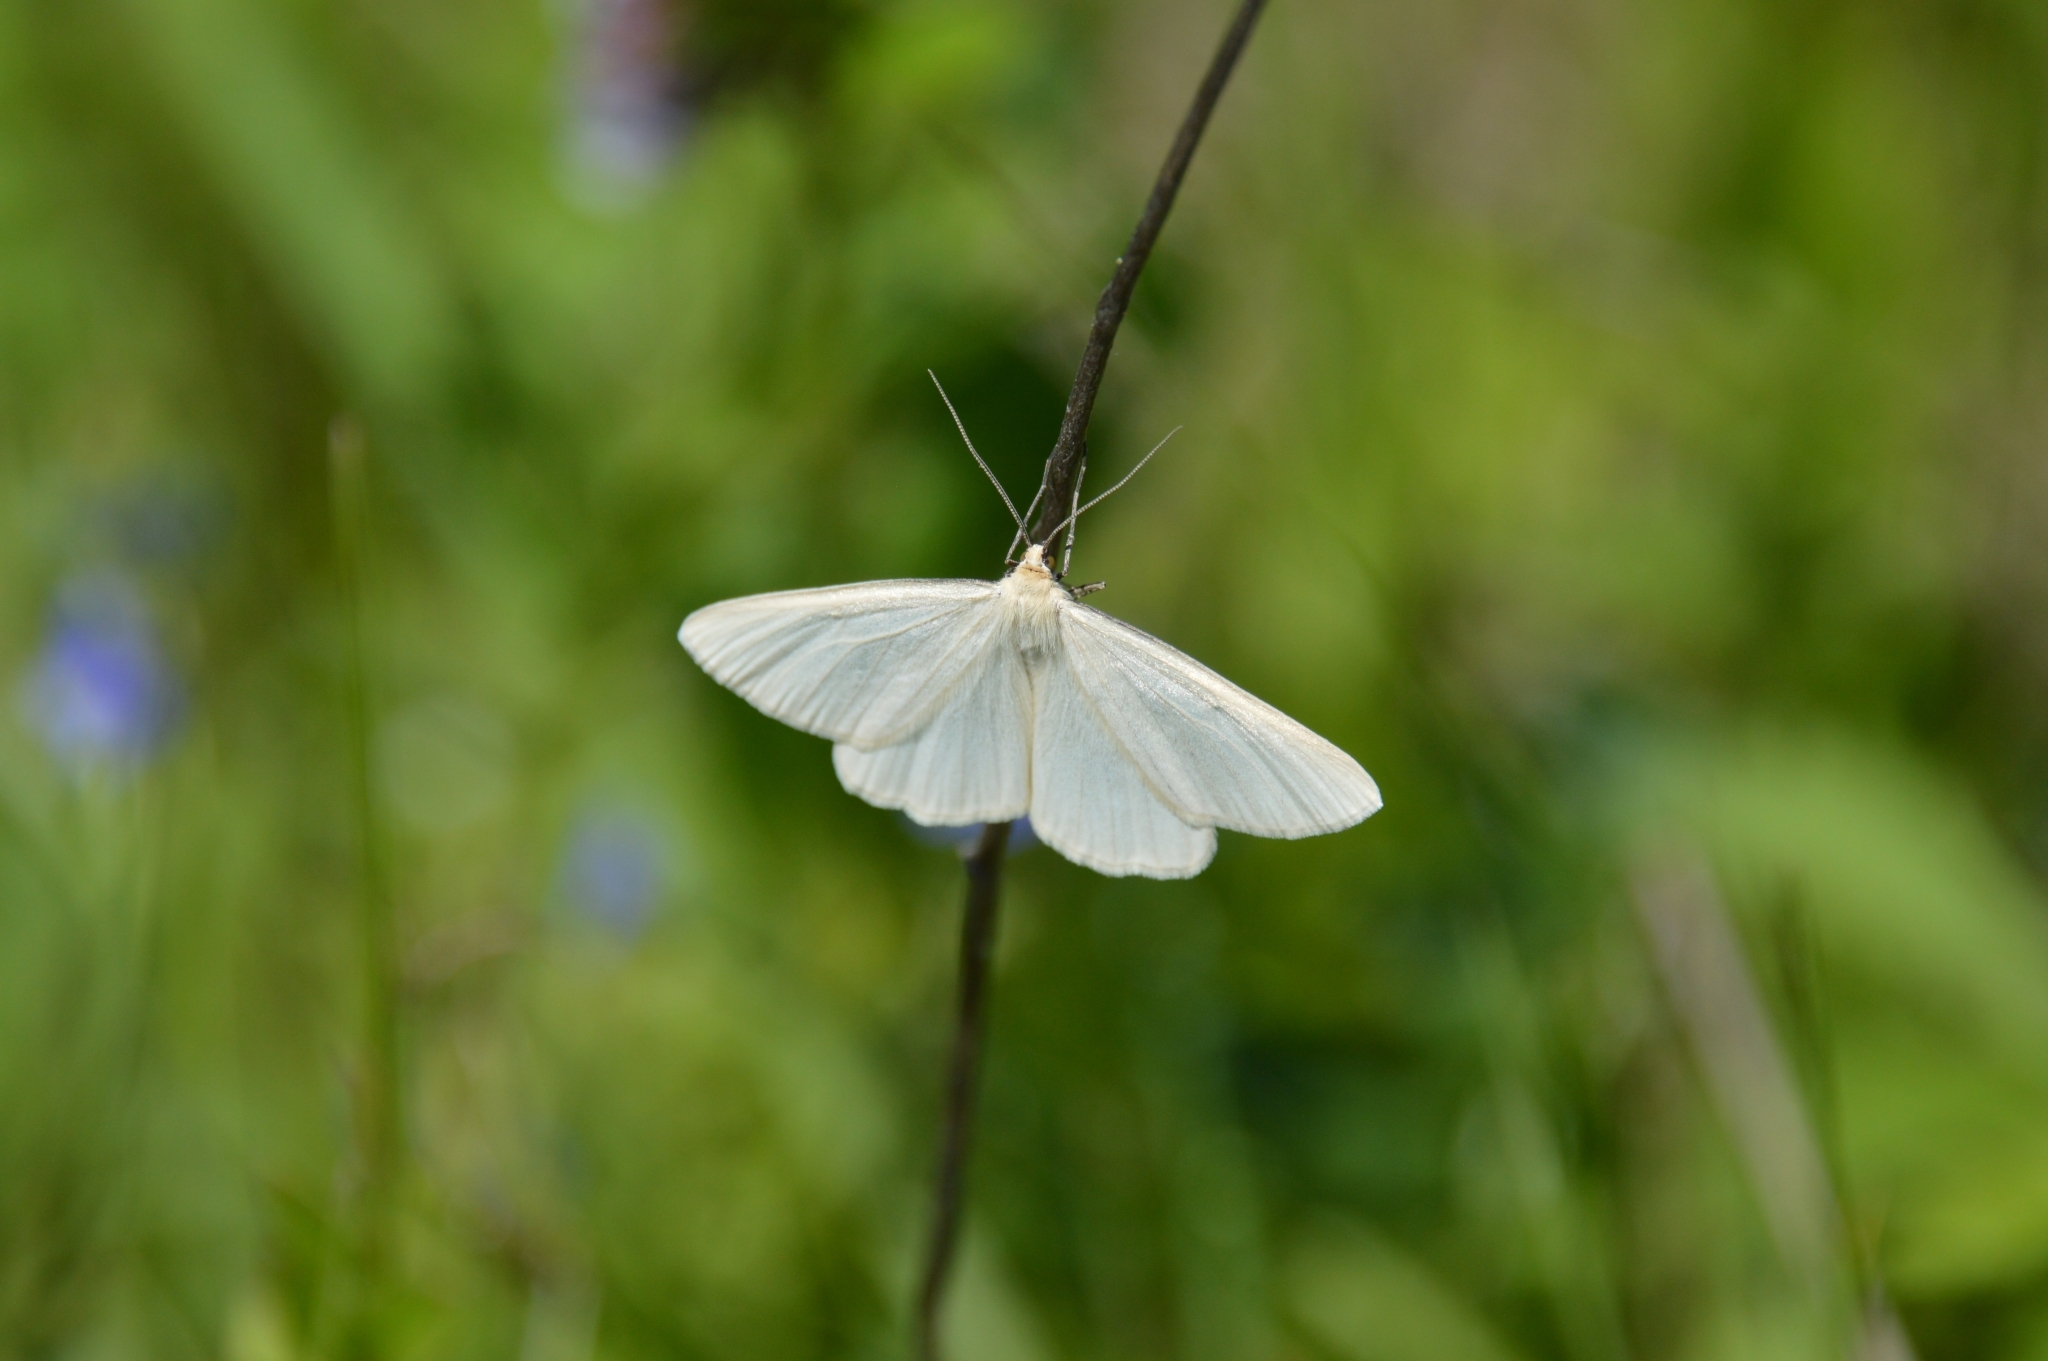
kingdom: Animalia
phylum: Arthropoda
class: Insecta
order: Lepidoptera
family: Geometridae
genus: Siona
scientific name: Siona lineata
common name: Black-veined moth
